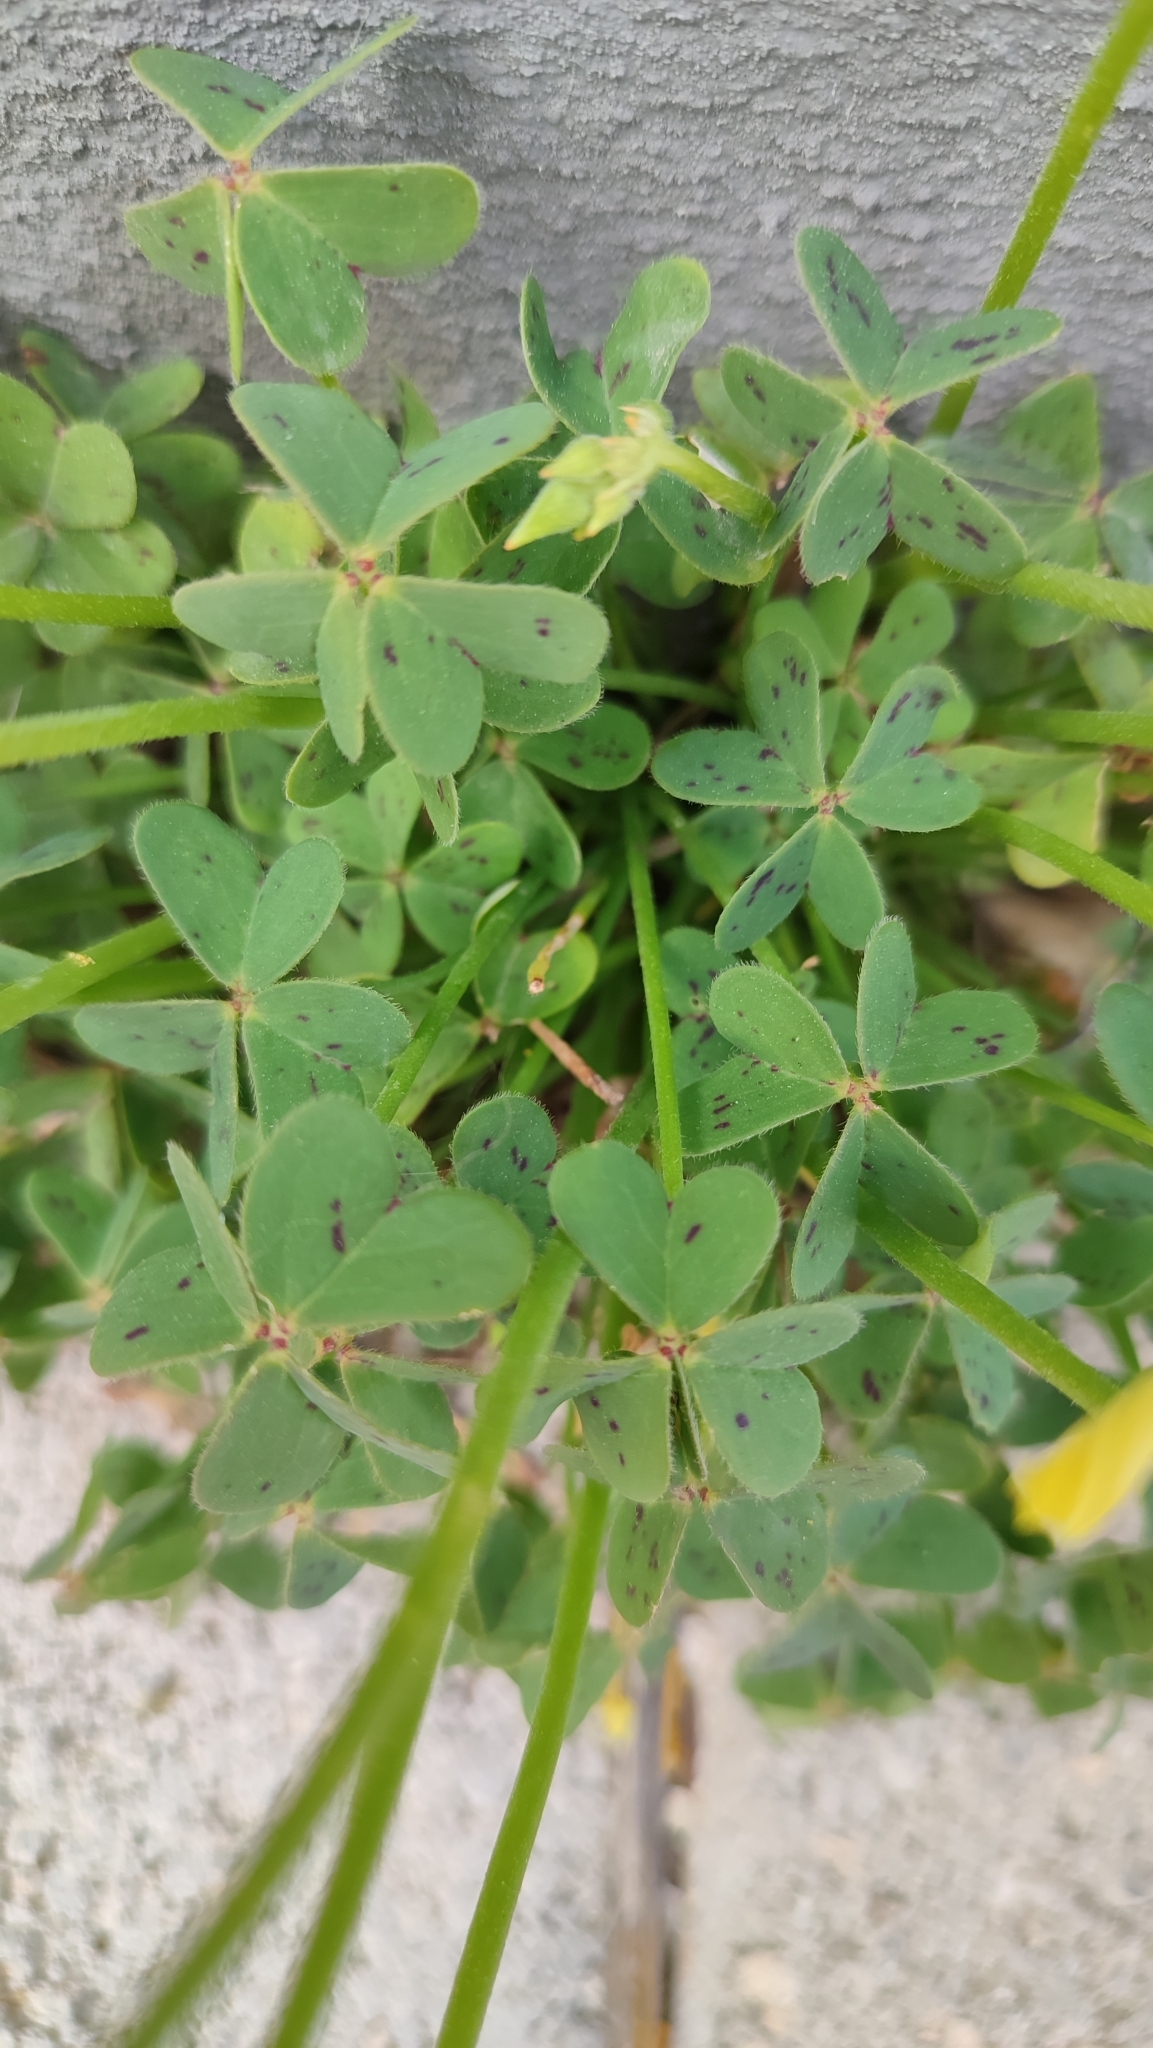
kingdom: Plantae
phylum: Tracheophyta
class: Magnoliopsida
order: Oxalidales
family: Oxalidaceae
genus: Oxalis
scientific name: Oxalis pes-caprae
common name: Bermuda-buttercup
